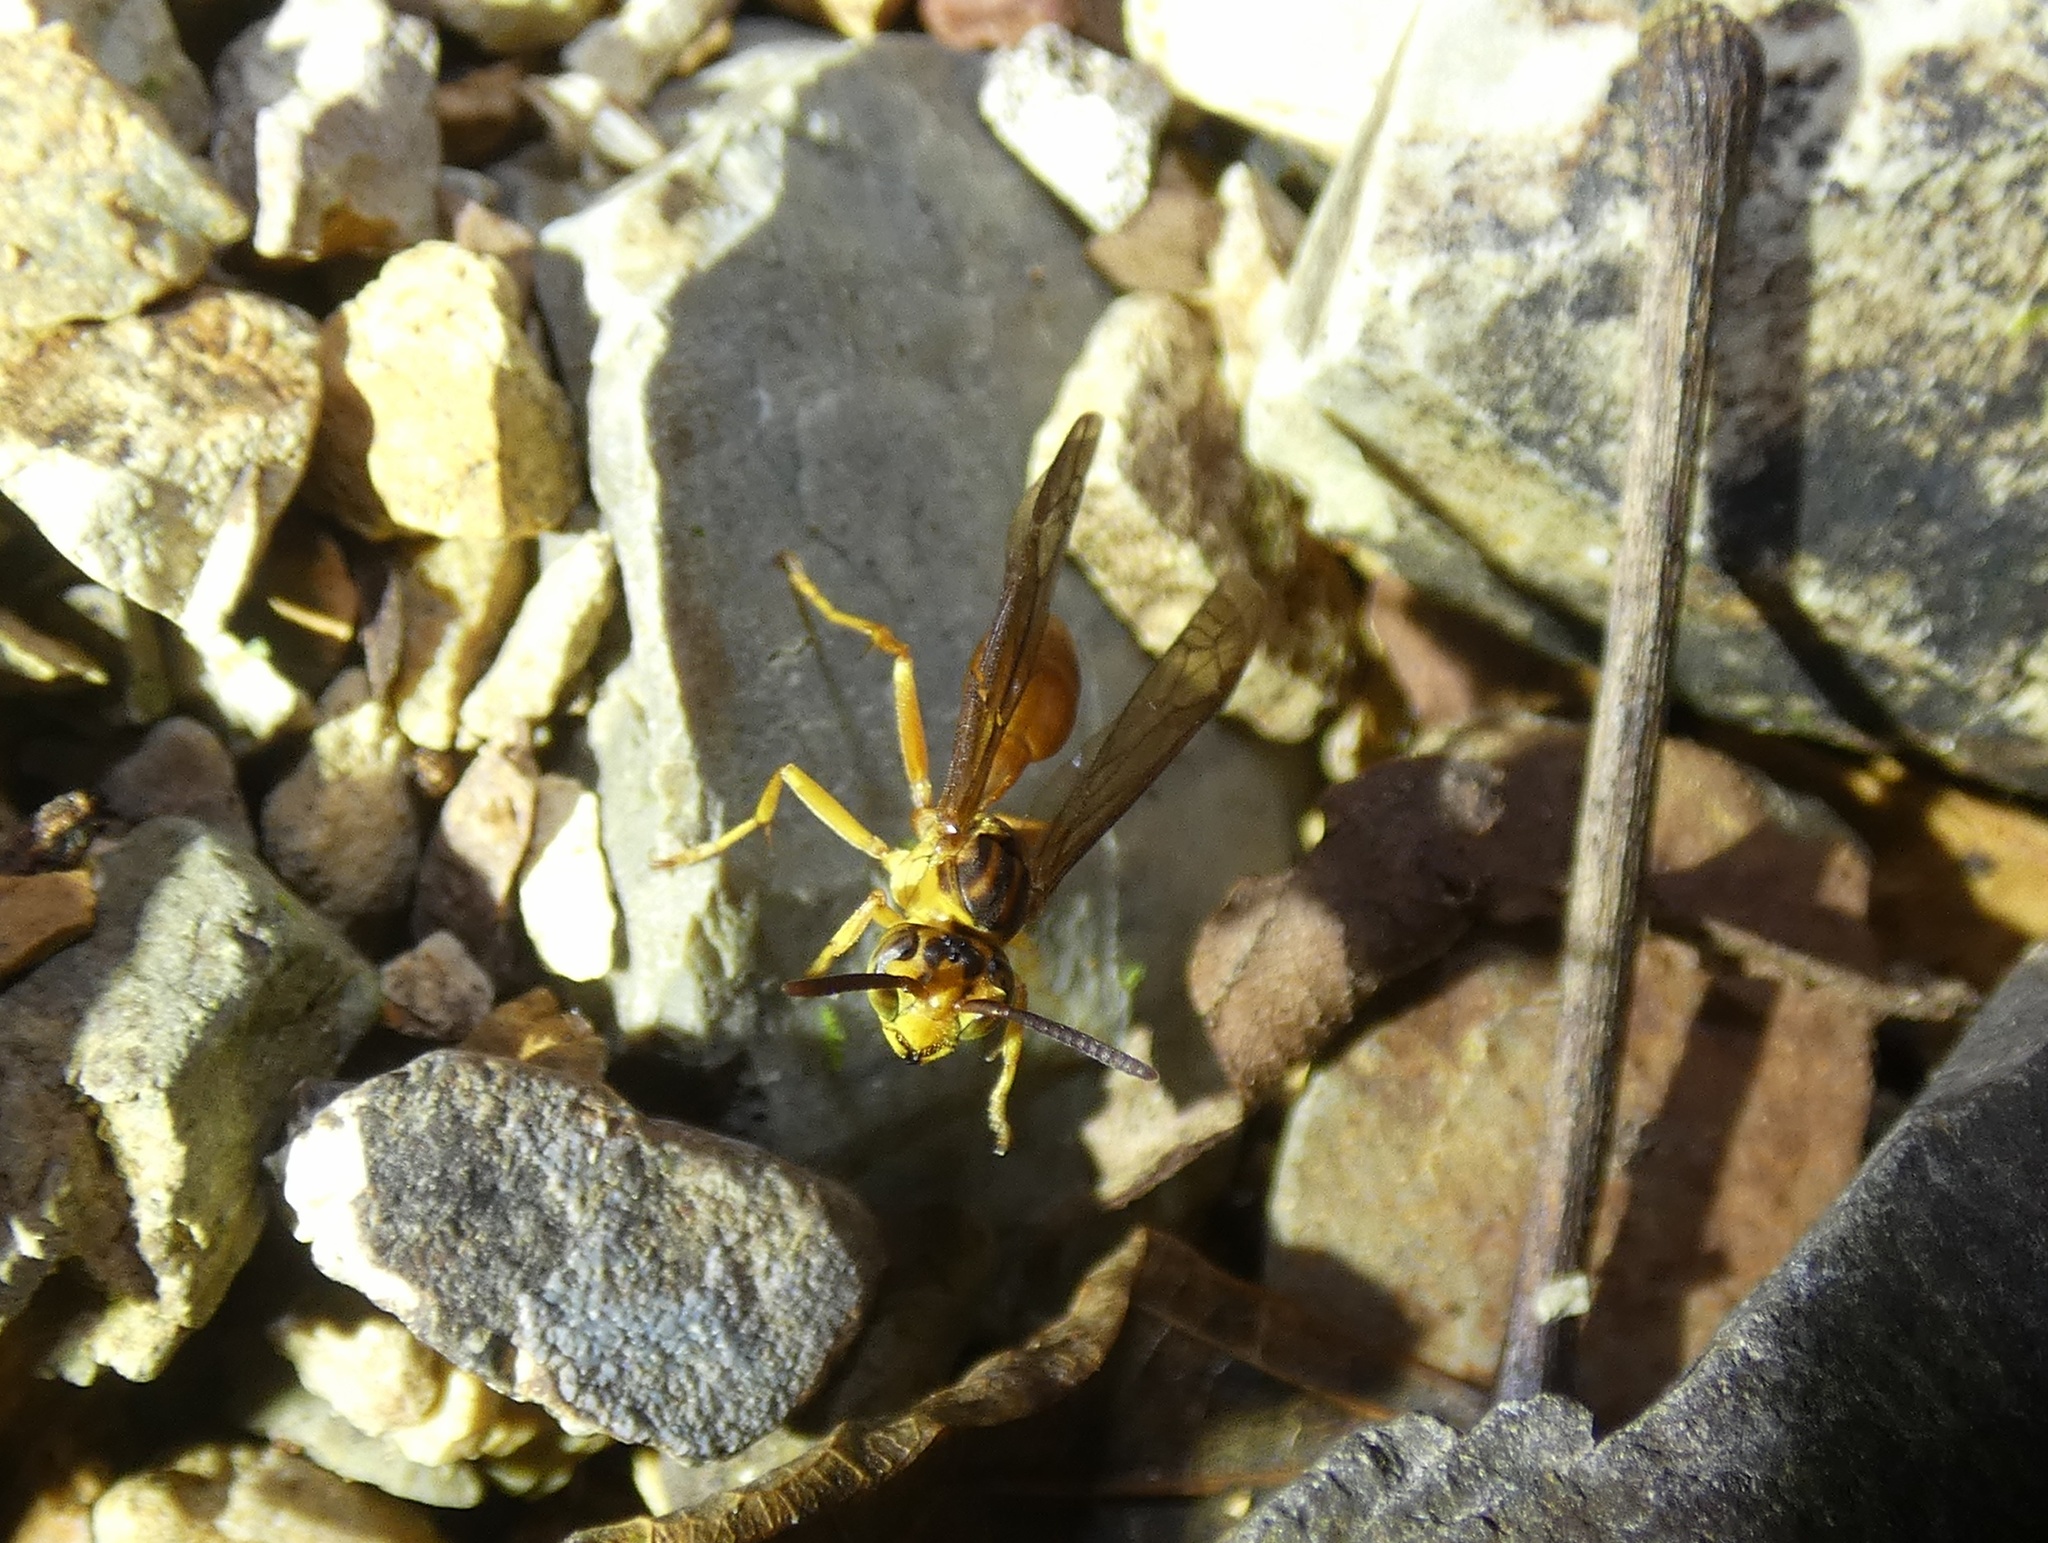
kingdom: Animalia
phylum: Arthropoda
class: Insecta
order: Hymenoptera
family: Vespidae
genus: Agelaia
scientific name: Agelaia centralis
